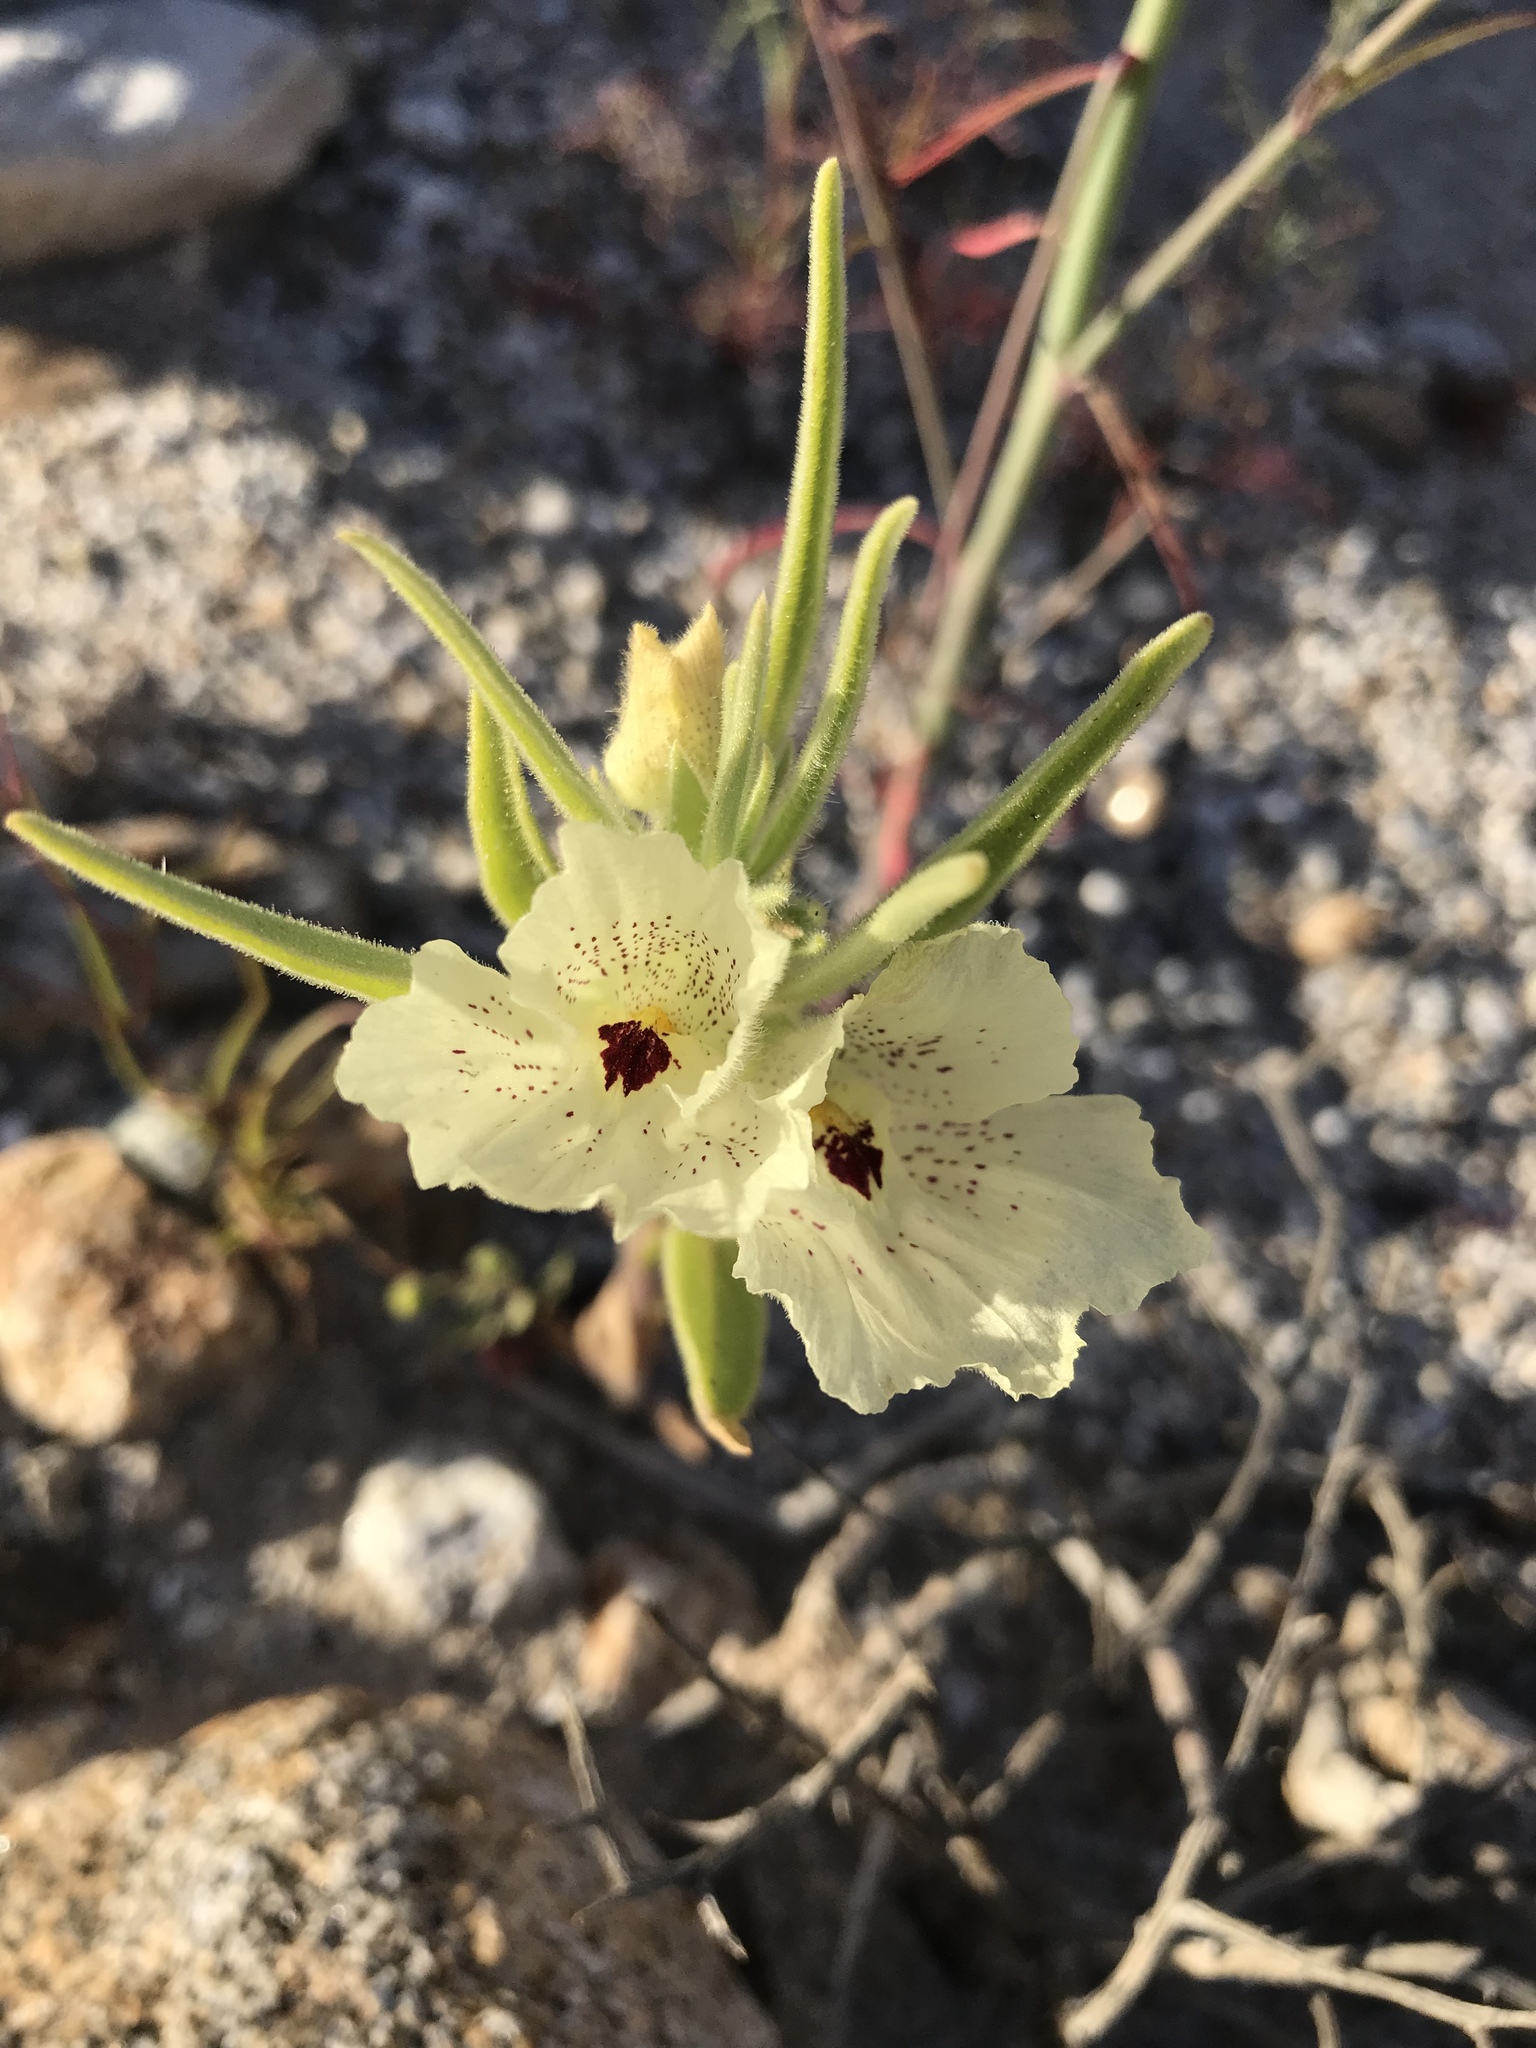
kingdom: Plantae
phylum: Tracheophyta
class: Magnoliopsida
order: Lamiales
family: Plantaginaceae
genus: Mohavea
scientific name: Mohavea confertiflora
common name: Ghost flower
